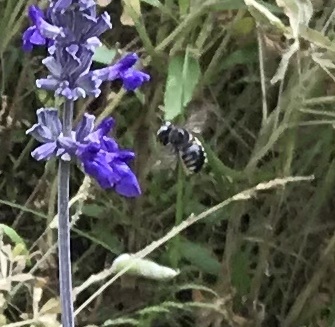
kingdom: Animalia
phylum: Arthropoda
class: Insecta
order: Hymenoptera
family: Apidae
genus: Xylocopa
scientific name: Xylocopa tabaniformis
